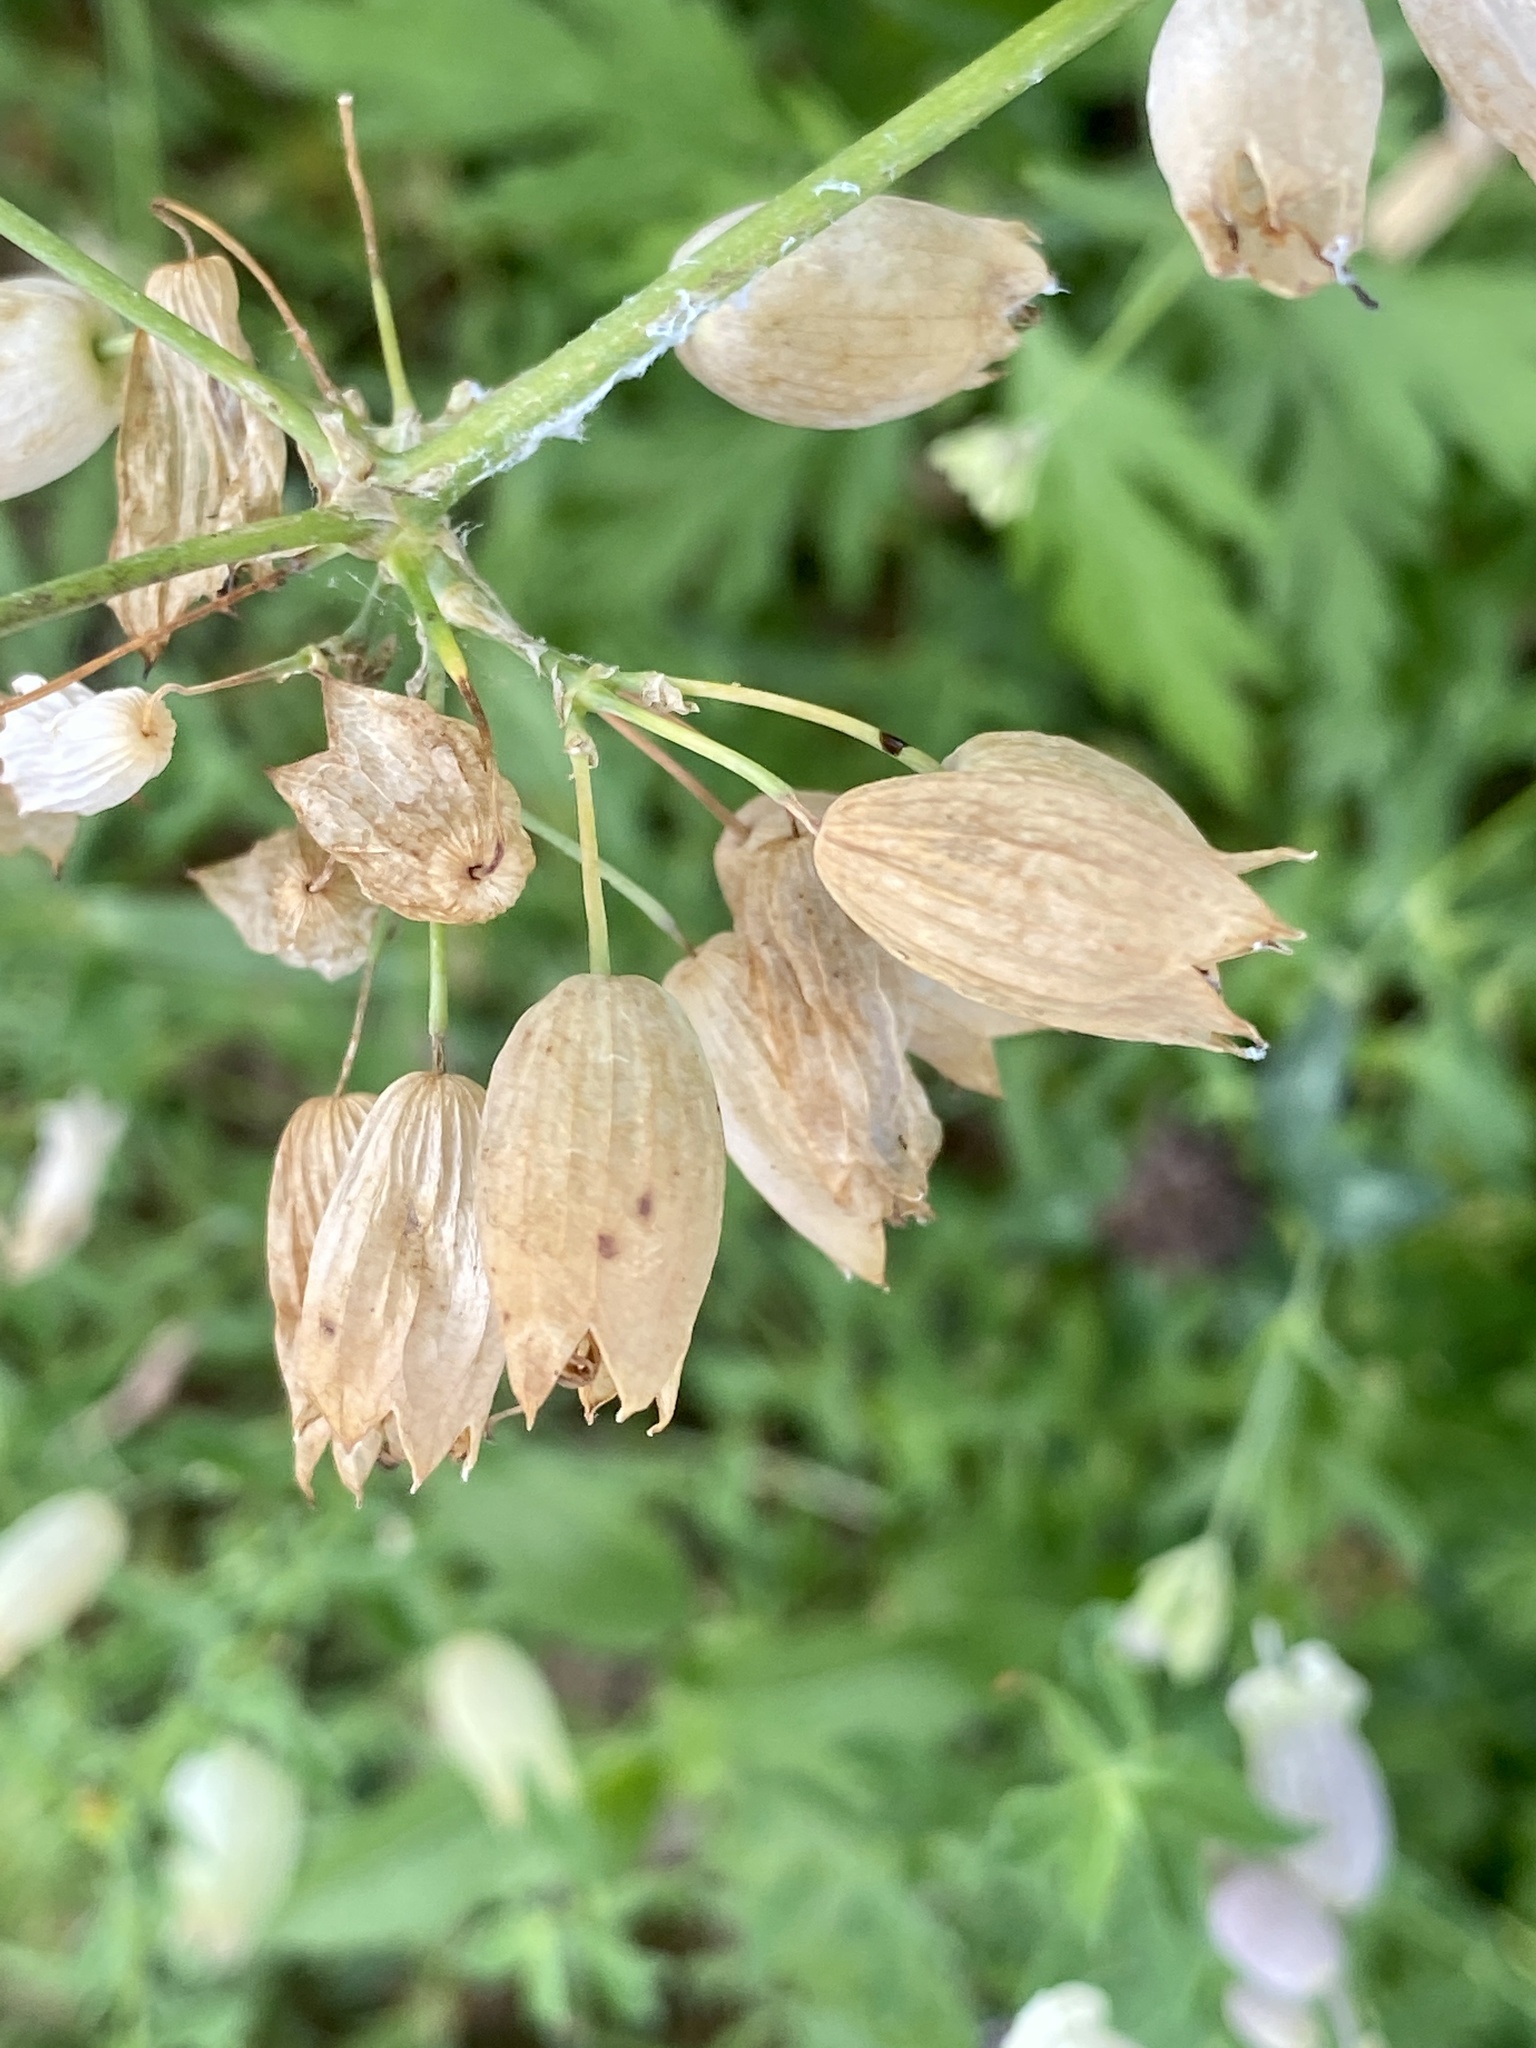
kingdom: Plantae
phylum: Tracheophyta
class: Magnoliopsida
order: Caryophyllales
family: Caryophyllaceae
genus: Silene
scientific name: Silene vulgaris
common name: Bladder campion
